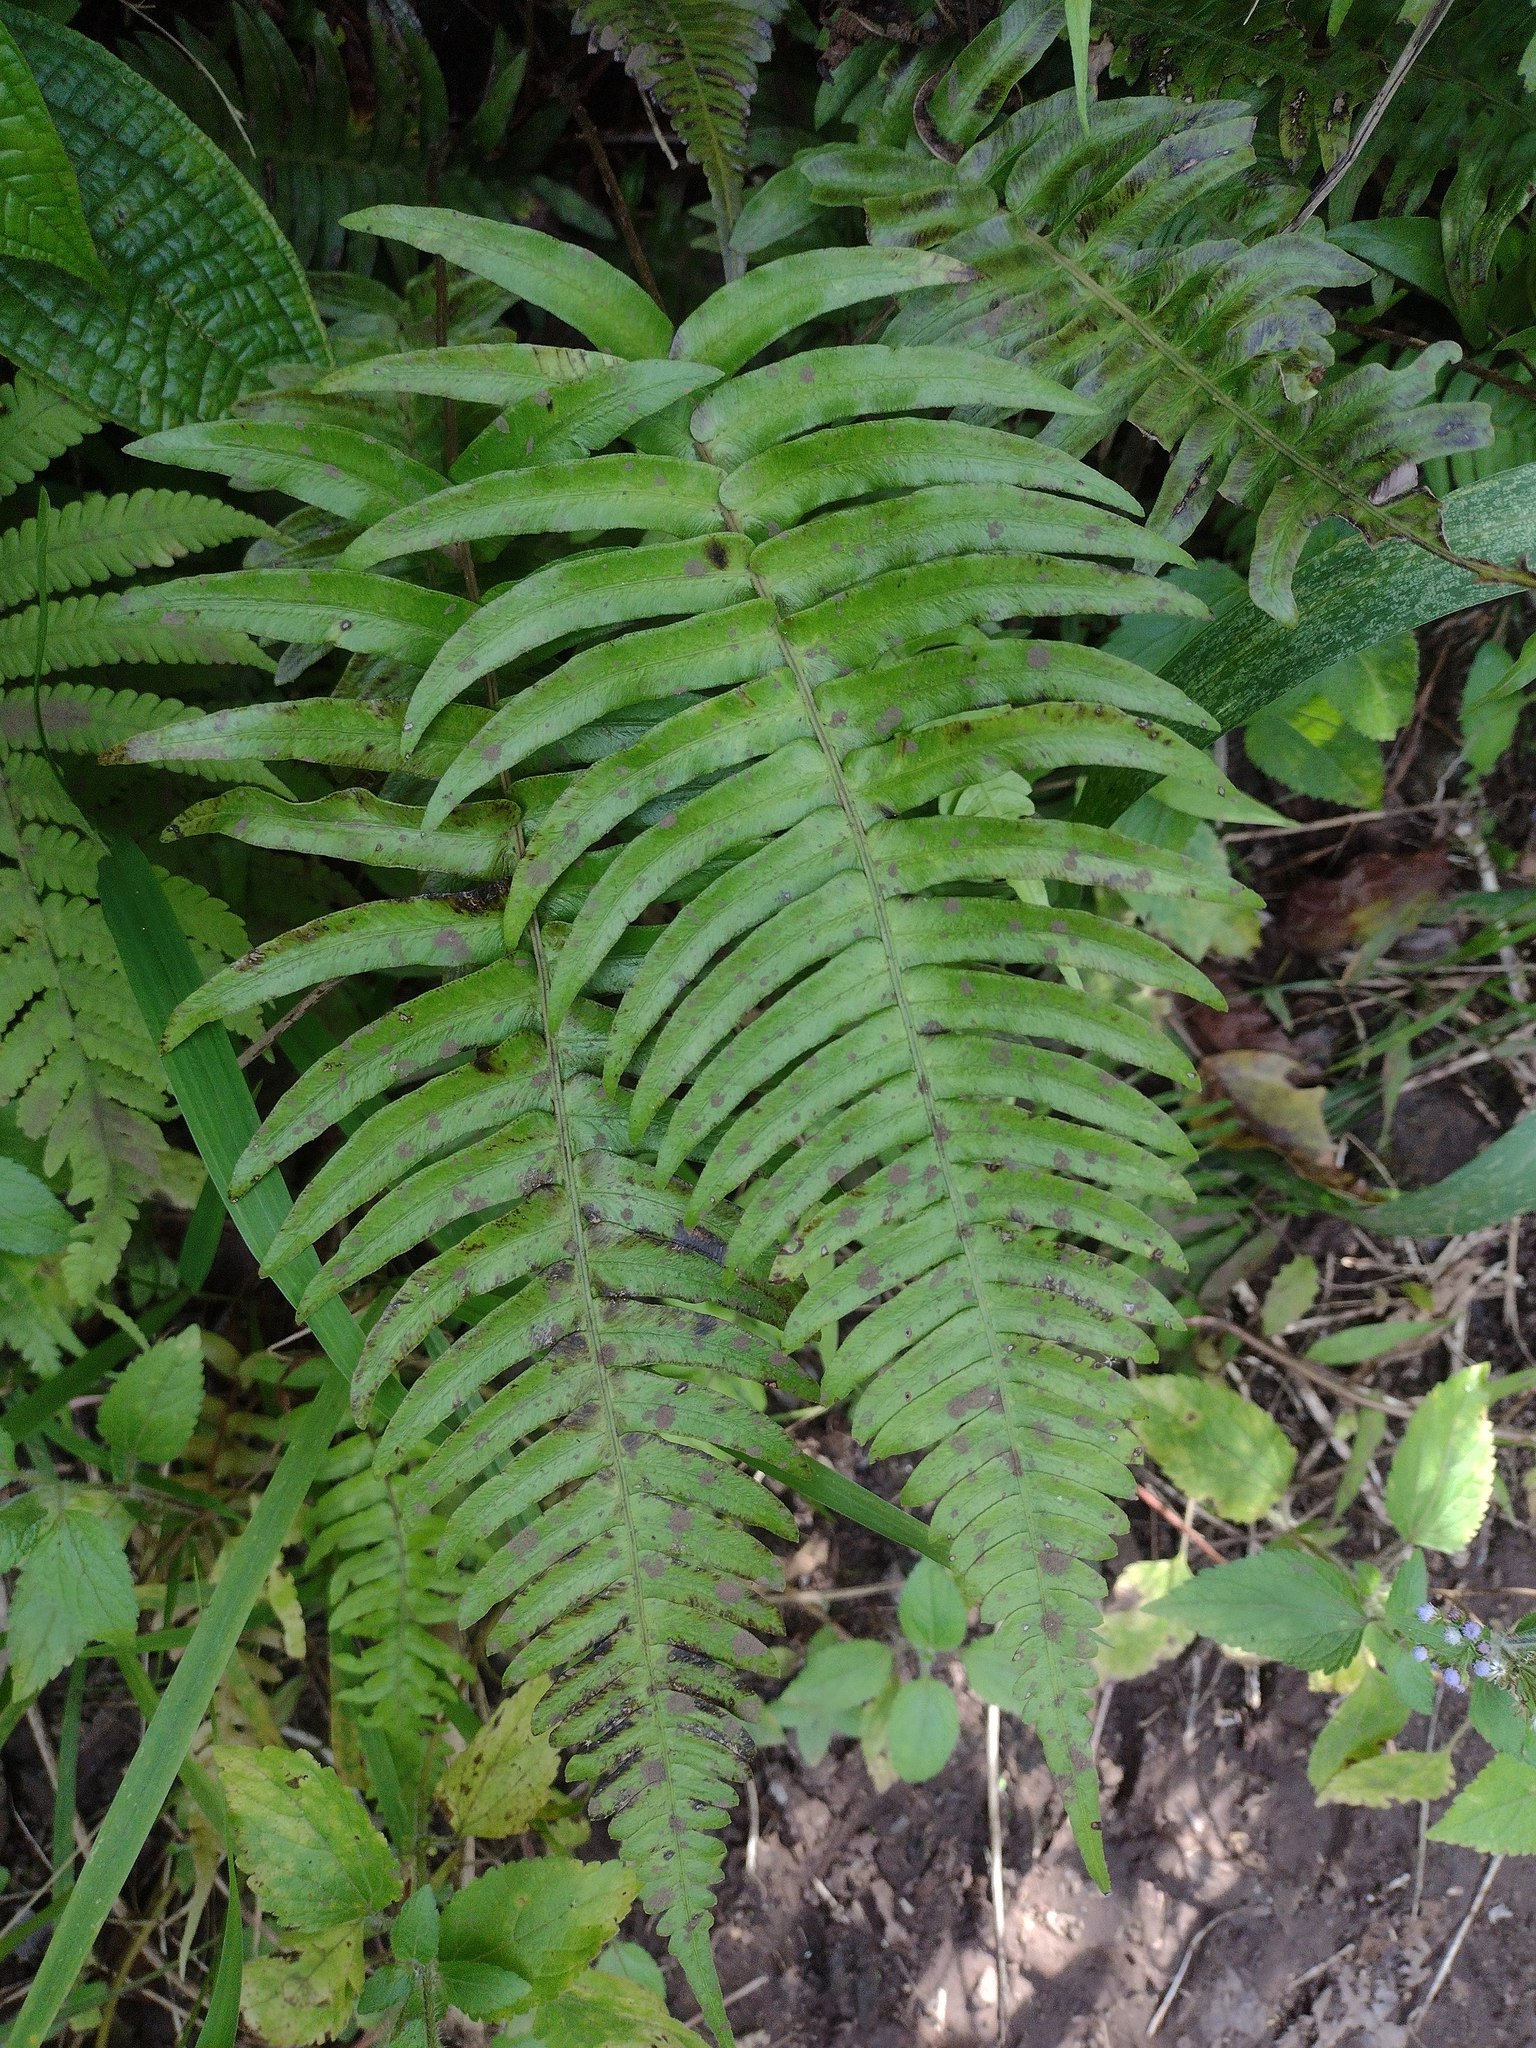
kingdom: Plantae
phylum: Tracheophyta
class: Polypodiopsida
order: Polypodiales
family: Blechnaceae
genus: Blechnum
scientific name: Blechnum appendiculatum
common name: Palm fern
